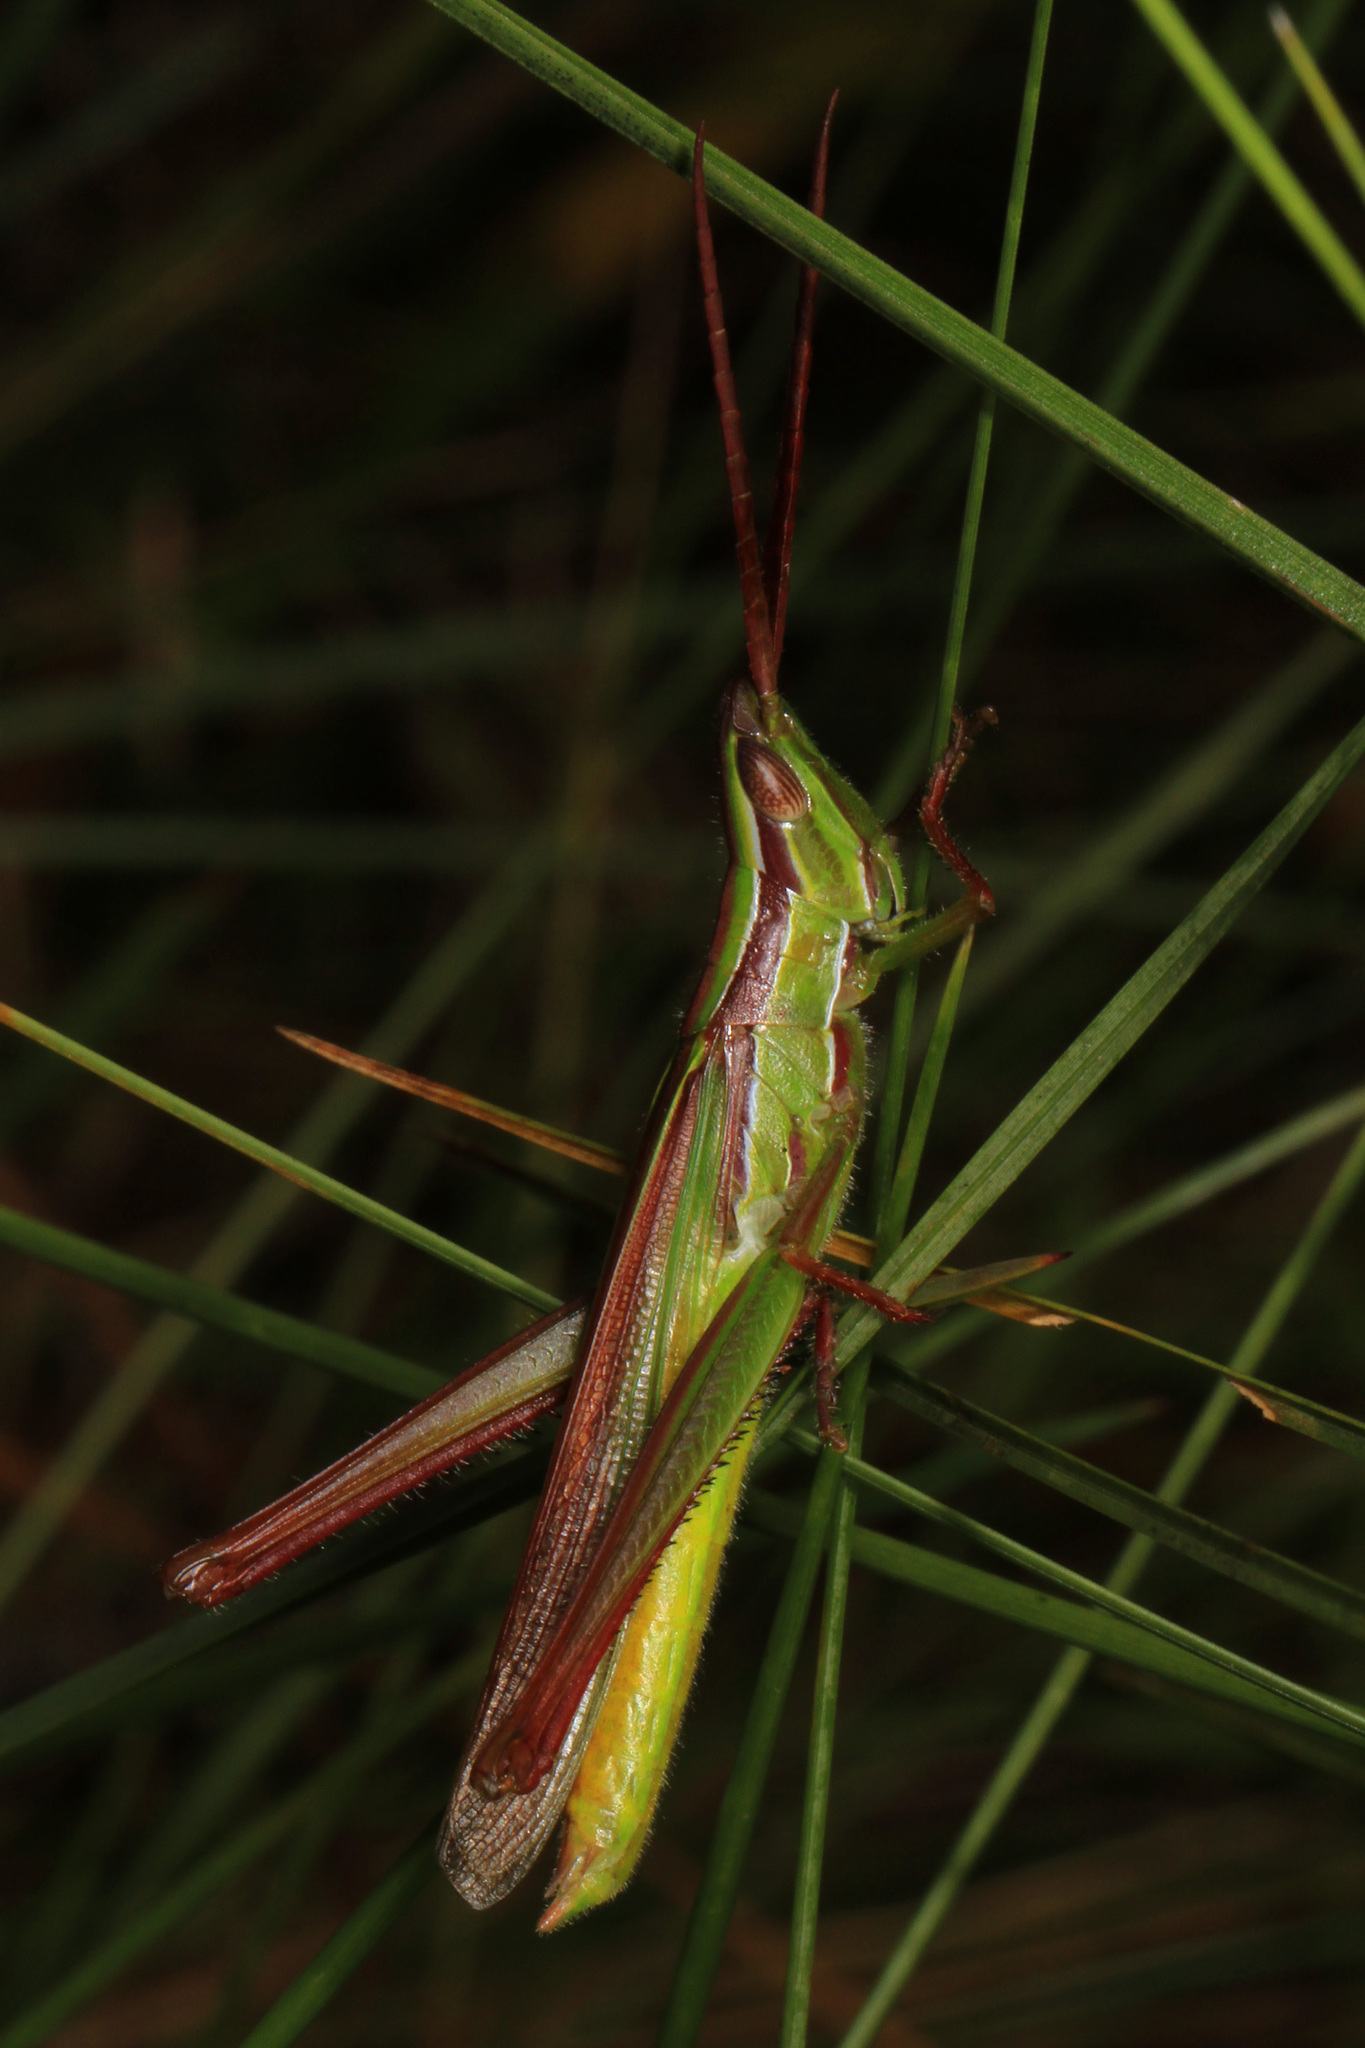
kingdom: Animalia
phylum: Arthropoda
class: Insecta
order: Orthoptera
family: Acrididae
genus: Mermiria
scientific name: Mermiria picta
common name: Lively mermiria grasshopper
